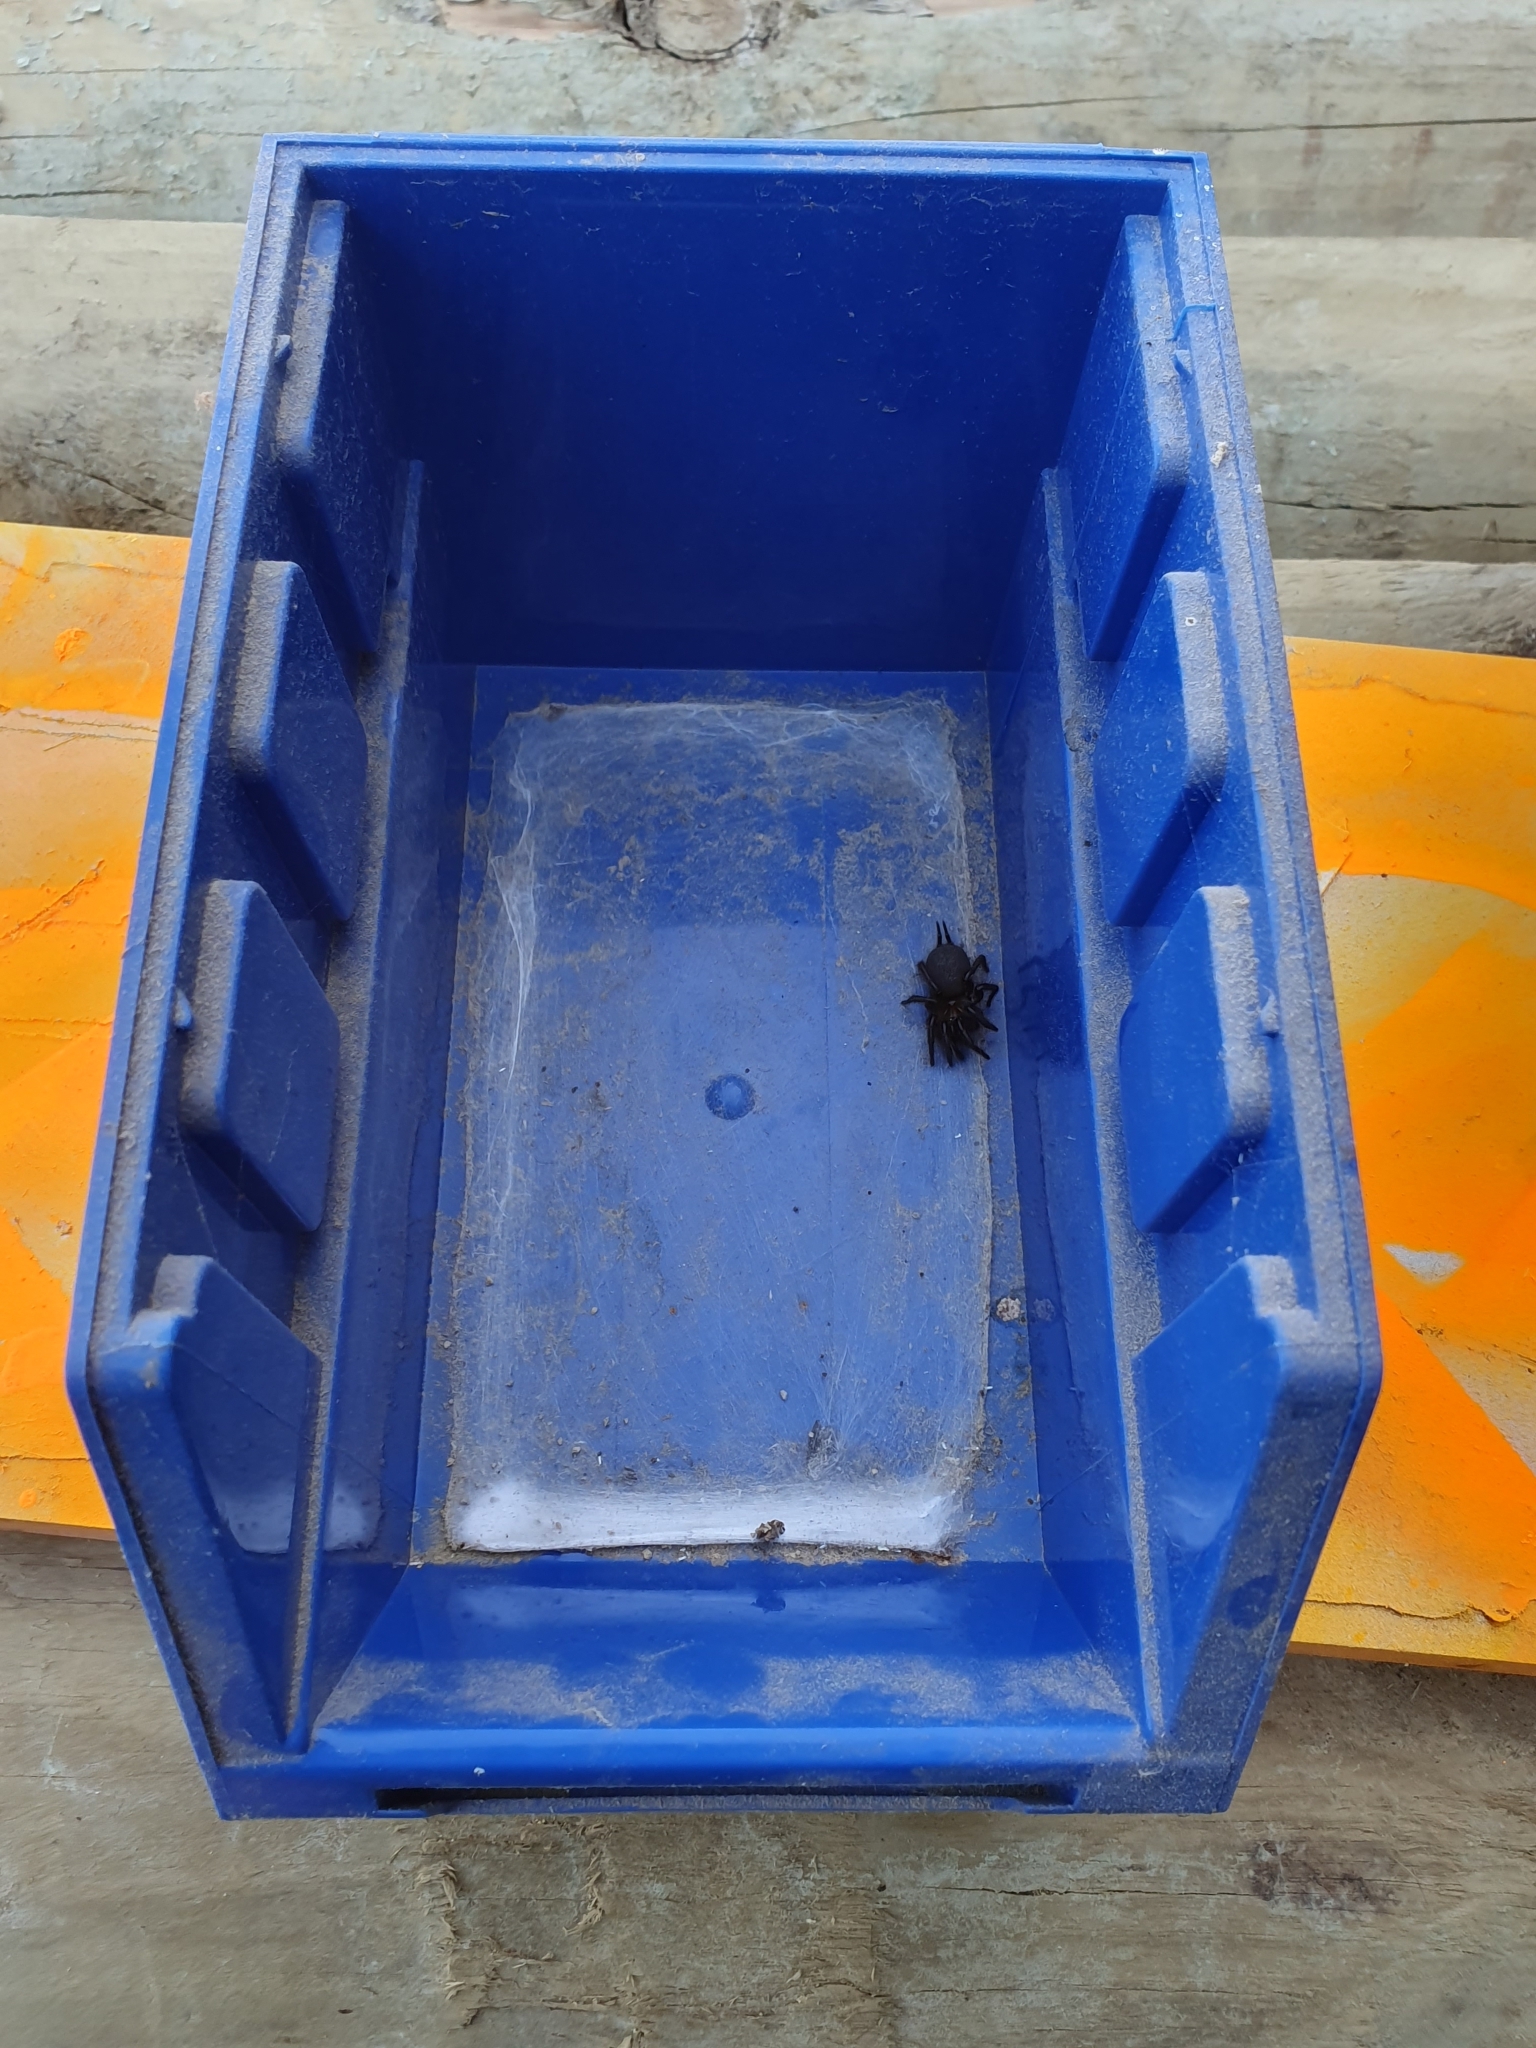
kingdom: Animalia
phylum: Arthropoda
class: Arachnida
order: Araneae
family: Porrhothelidae
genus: Porrhothele
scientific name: Porrhothele antipodiana
